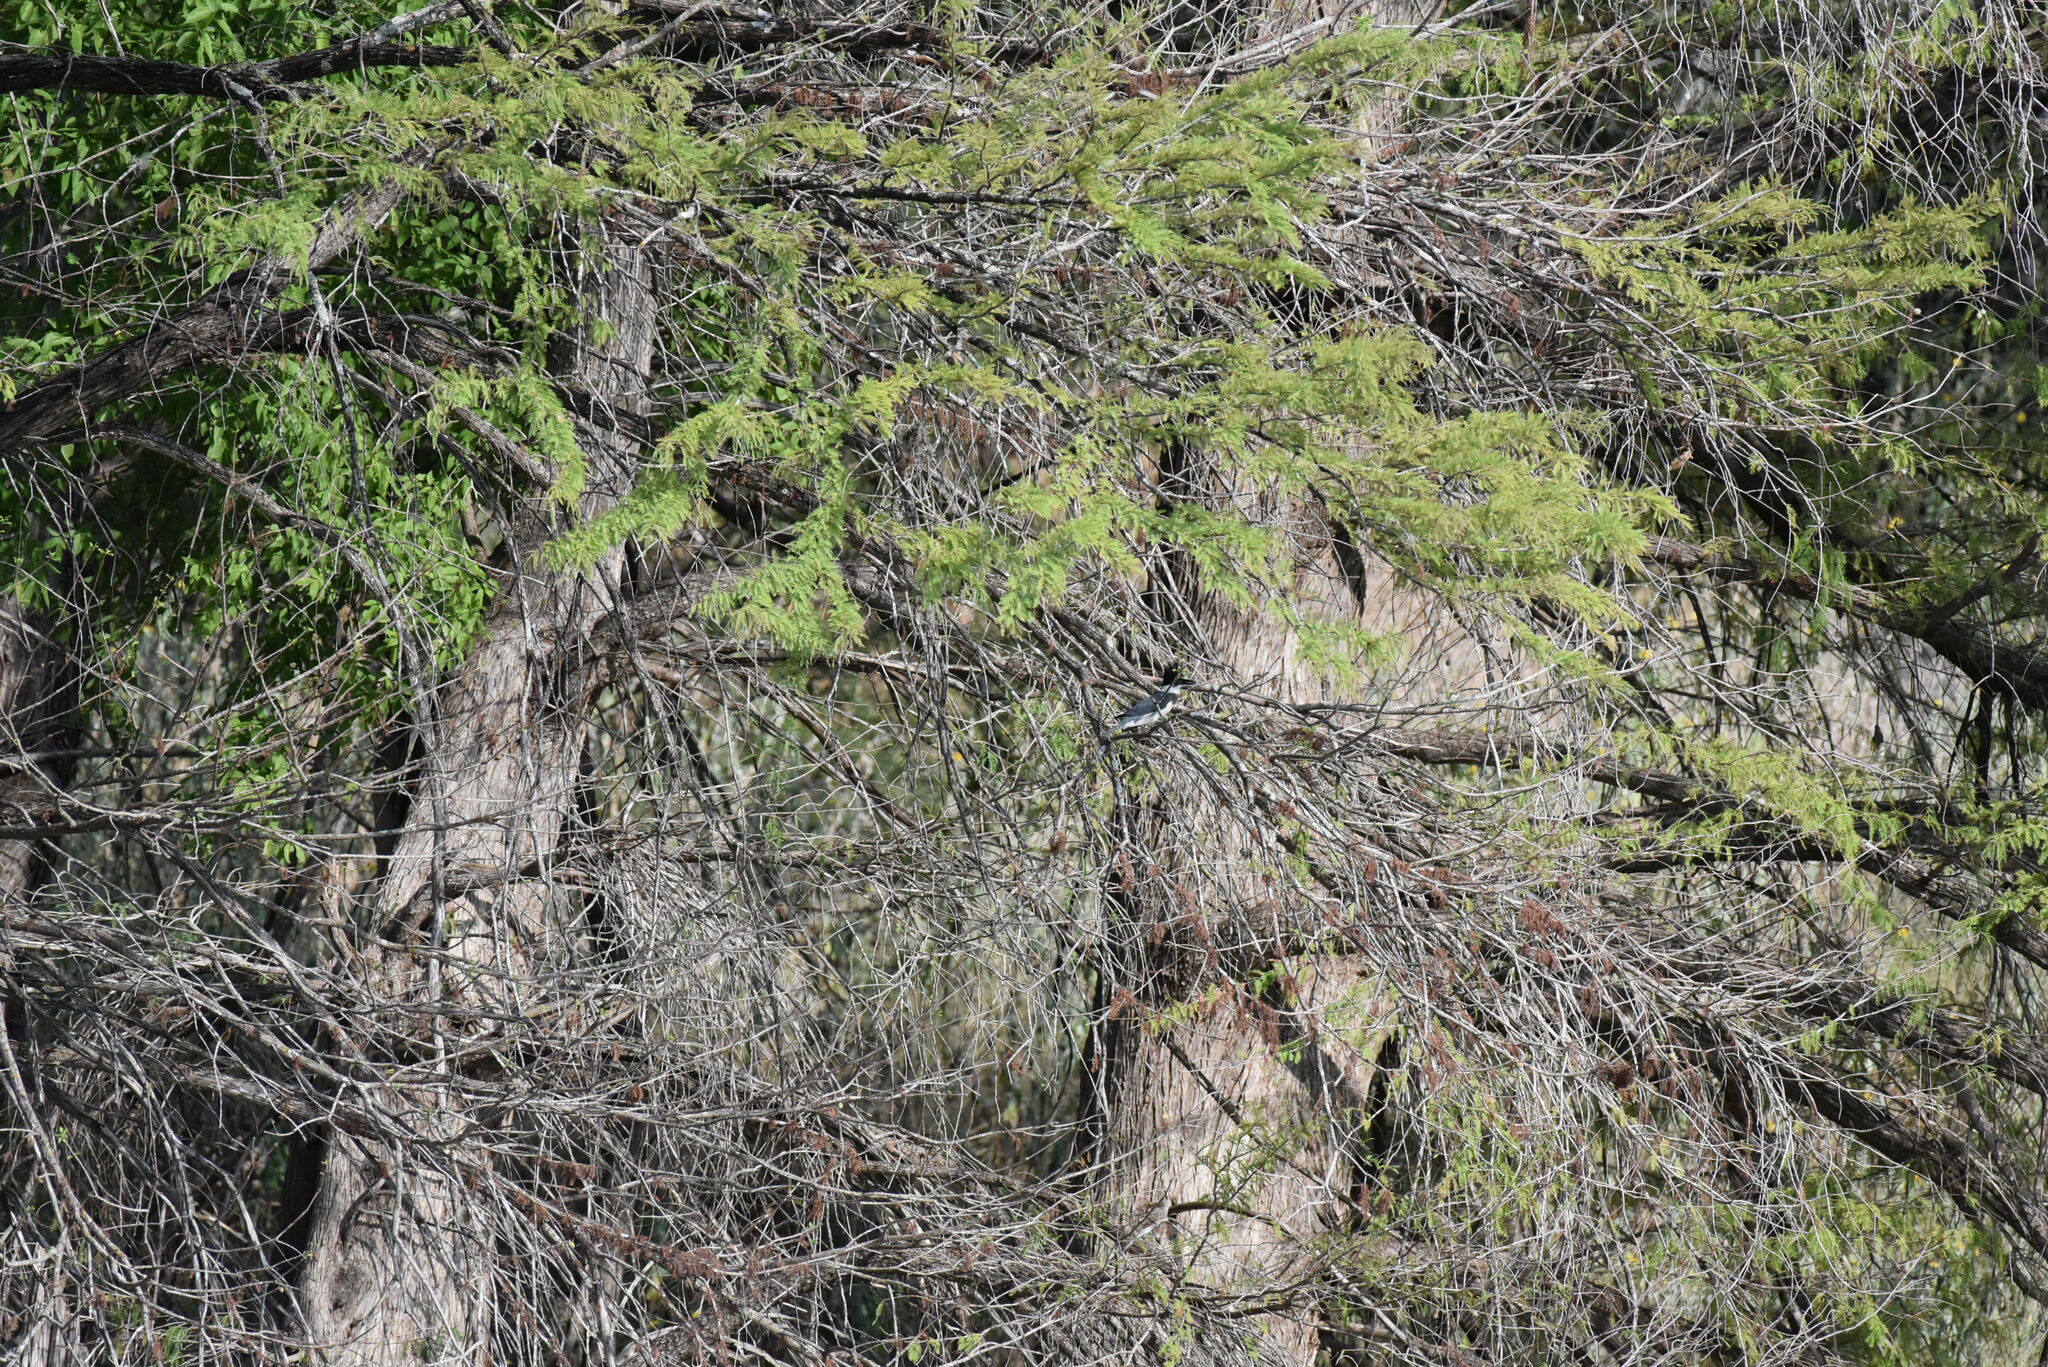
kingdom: Animalia
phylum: Chordata
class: Aves
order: Coraciiformes
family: Alcedinidae
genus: Megaceryle
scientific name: Megaceryle alcyon
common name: Belted kingfisher
